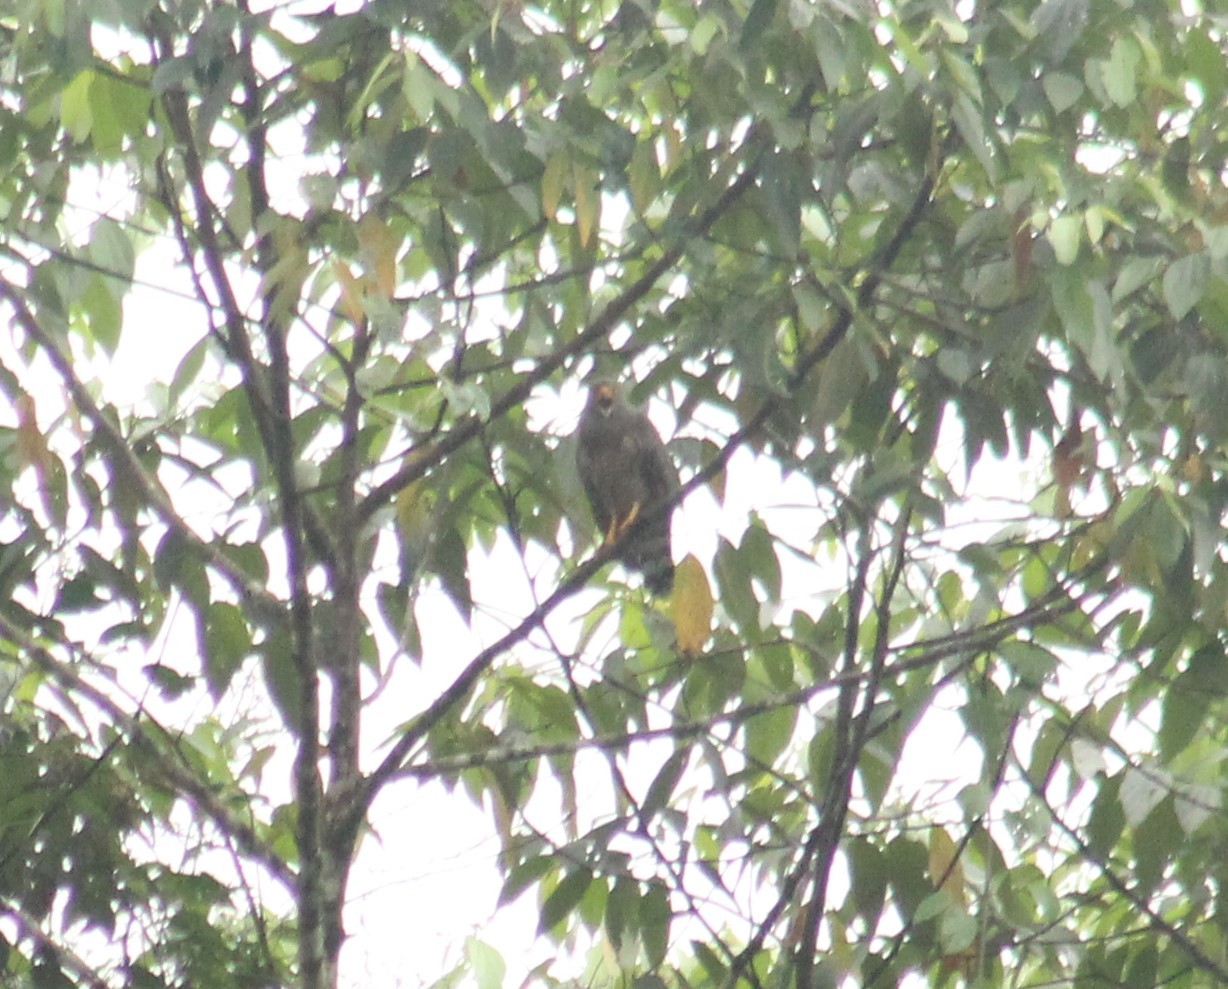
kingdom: Animalia
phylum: Chordata
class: Aves
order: Accipitriformes
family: Accipitridae
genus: Rupornis
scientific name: Rupornis magnirostris
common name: Roadside hawk
